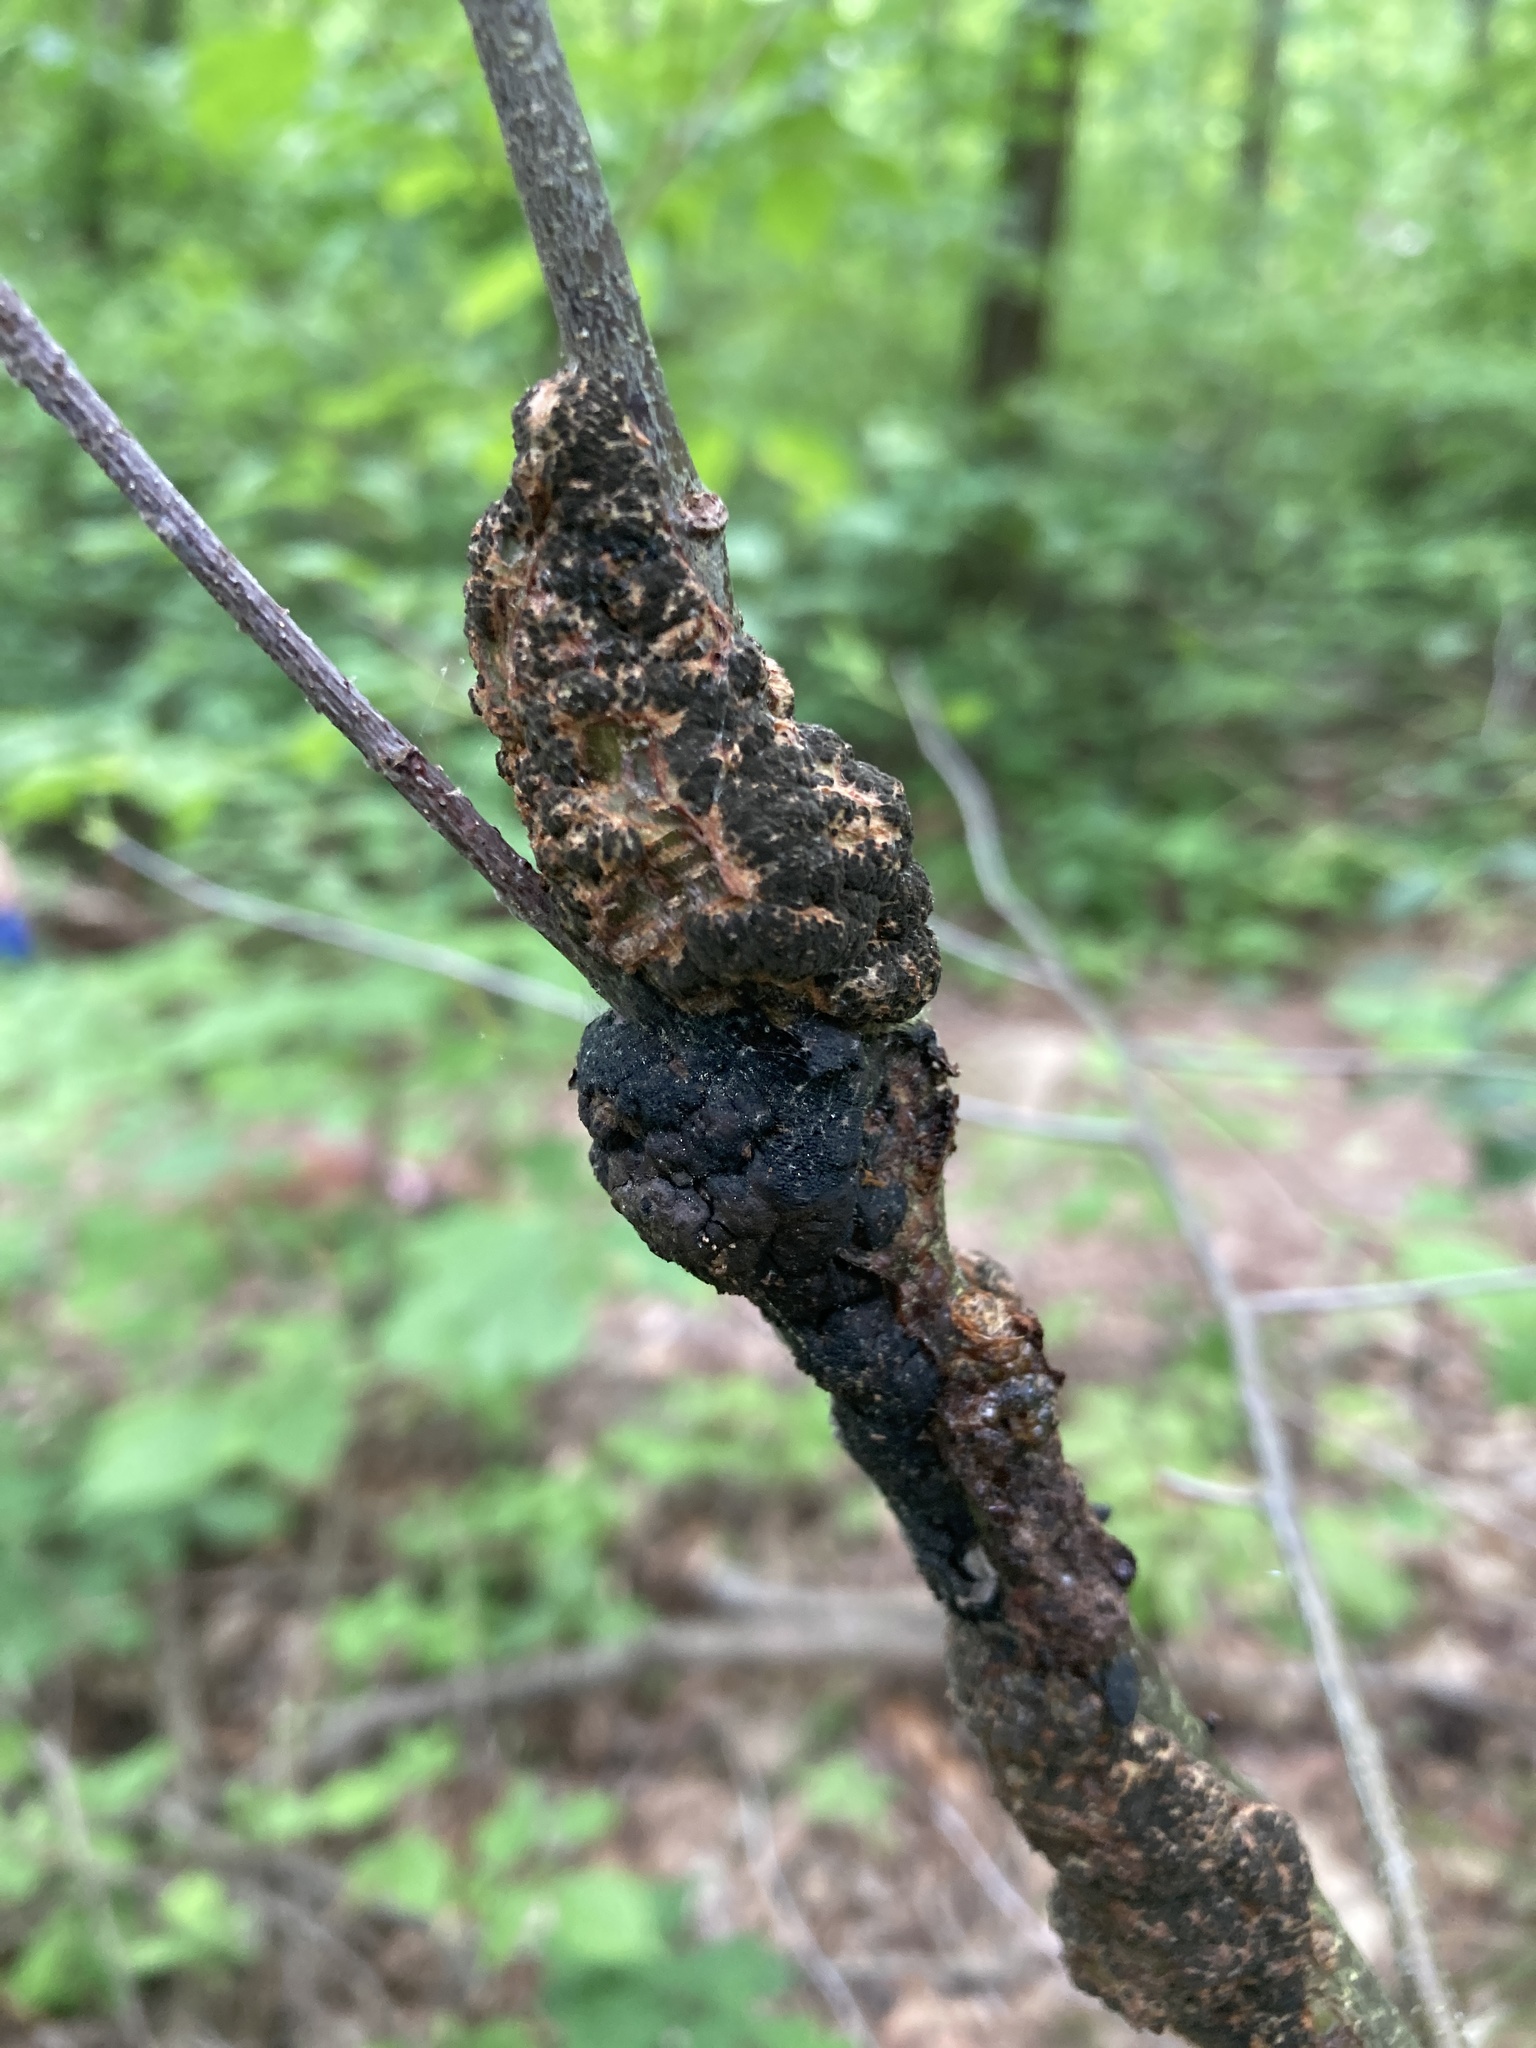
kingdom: Fungi
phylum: Ascomycota
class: Dothideomycetes
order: Venturiales
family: Venturiaceae
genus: Apiosporina
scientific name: Apiosporina morbosa
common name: Black knot
